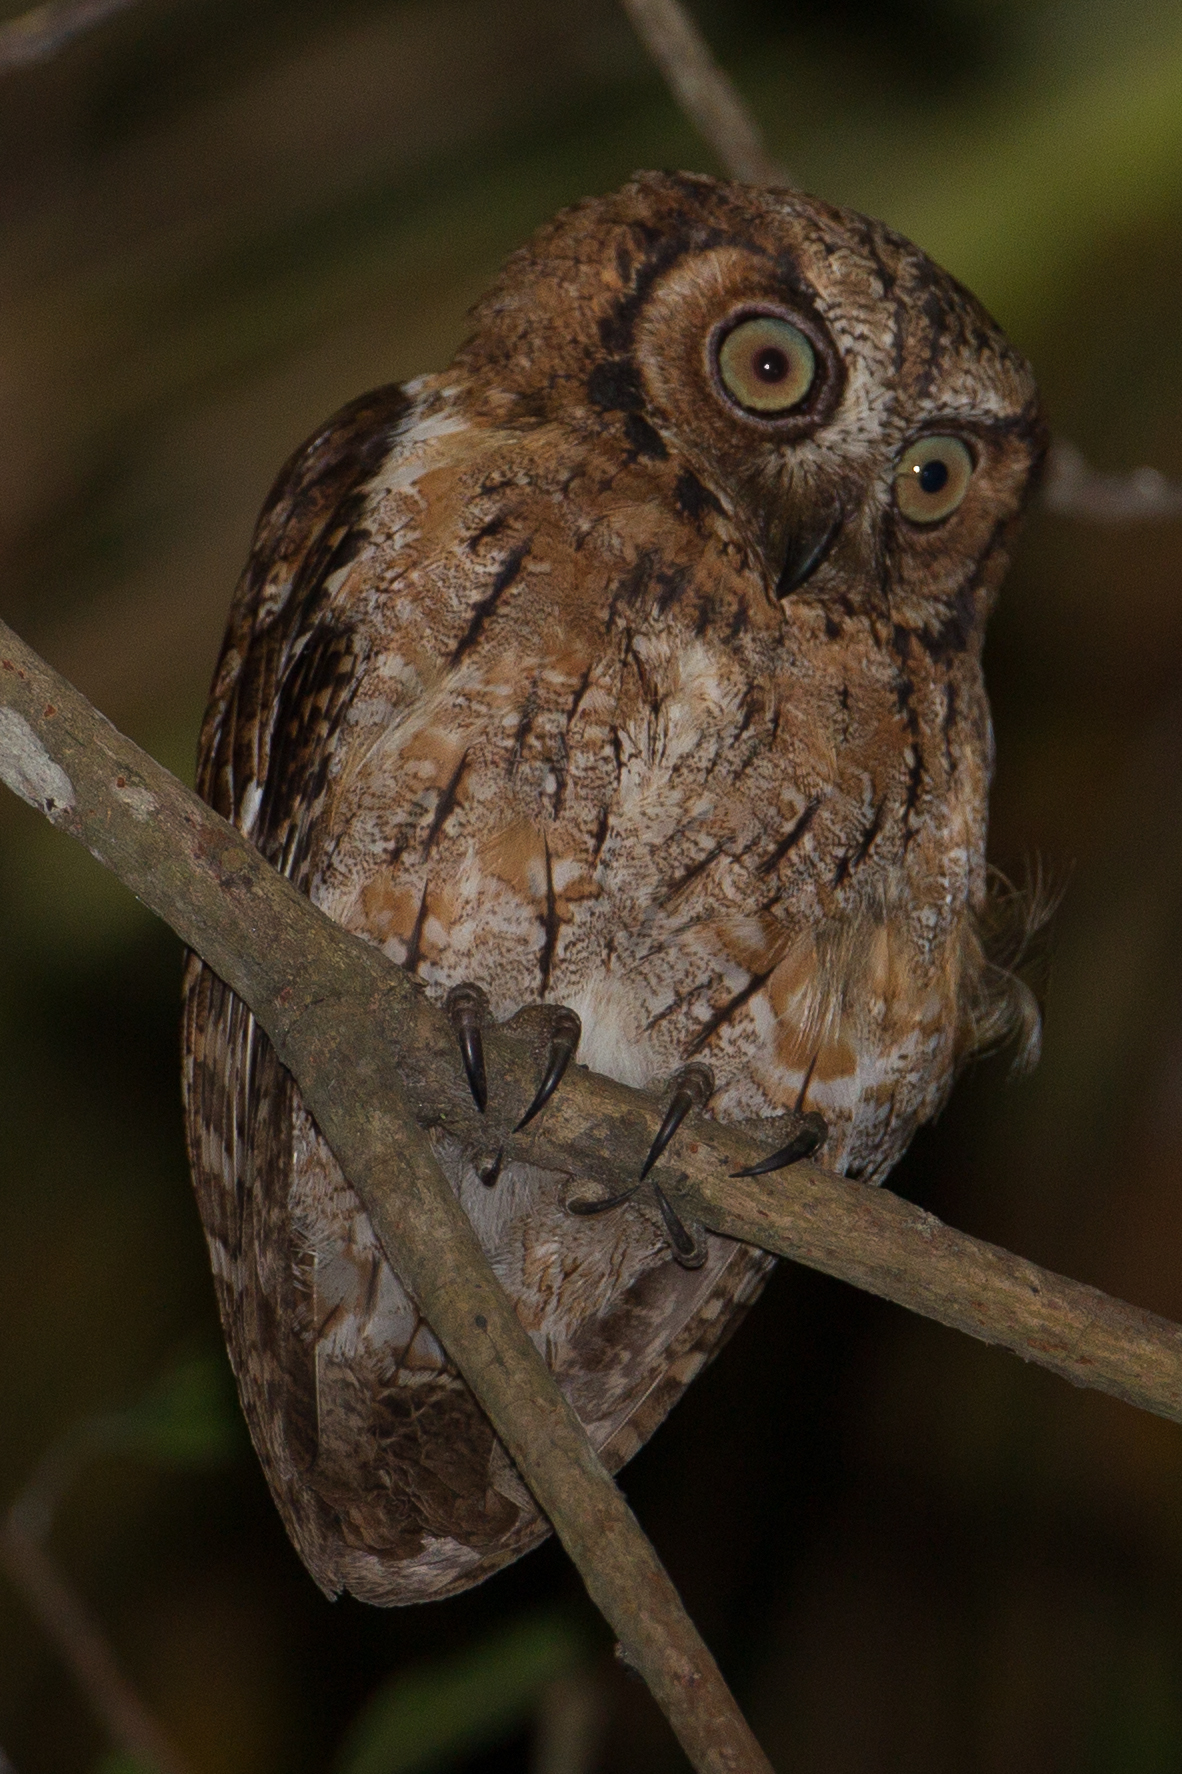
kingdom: Animalia
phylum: Chordata
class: Aves
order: Strigiformes
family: Strigidae
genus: Otus
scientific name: Otus magicus
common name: Moluccan scops owl
